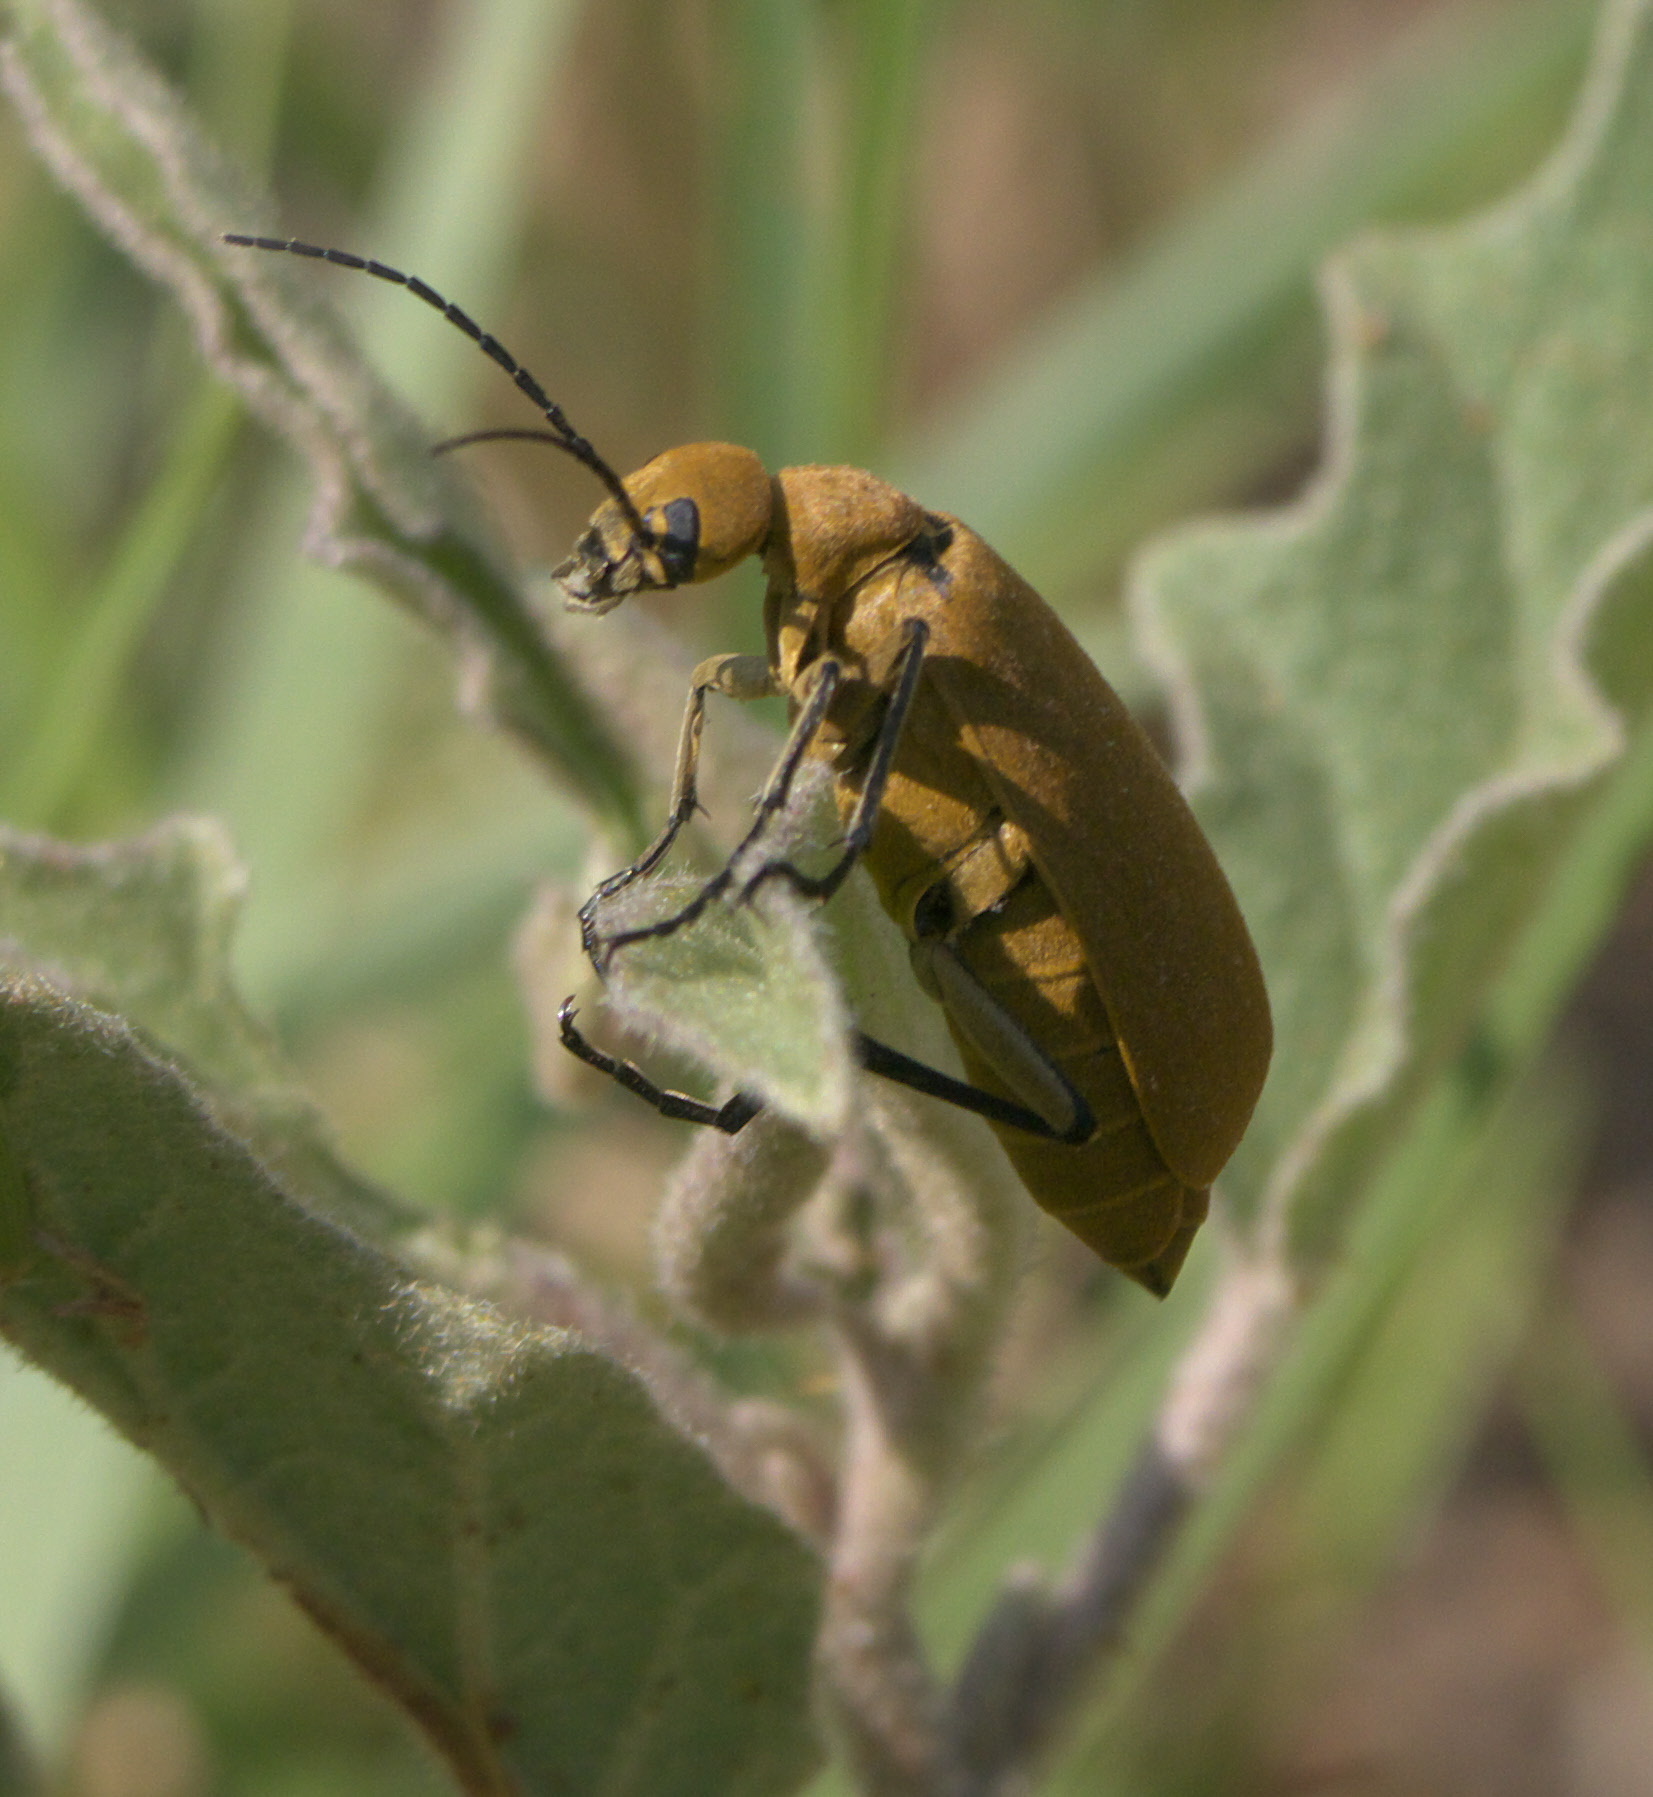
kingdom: Animalia
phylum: Arthropoda
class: Insecta
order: Coleoptera
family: Meloidae
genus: Epicauta
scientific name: Epicauta immaculata
